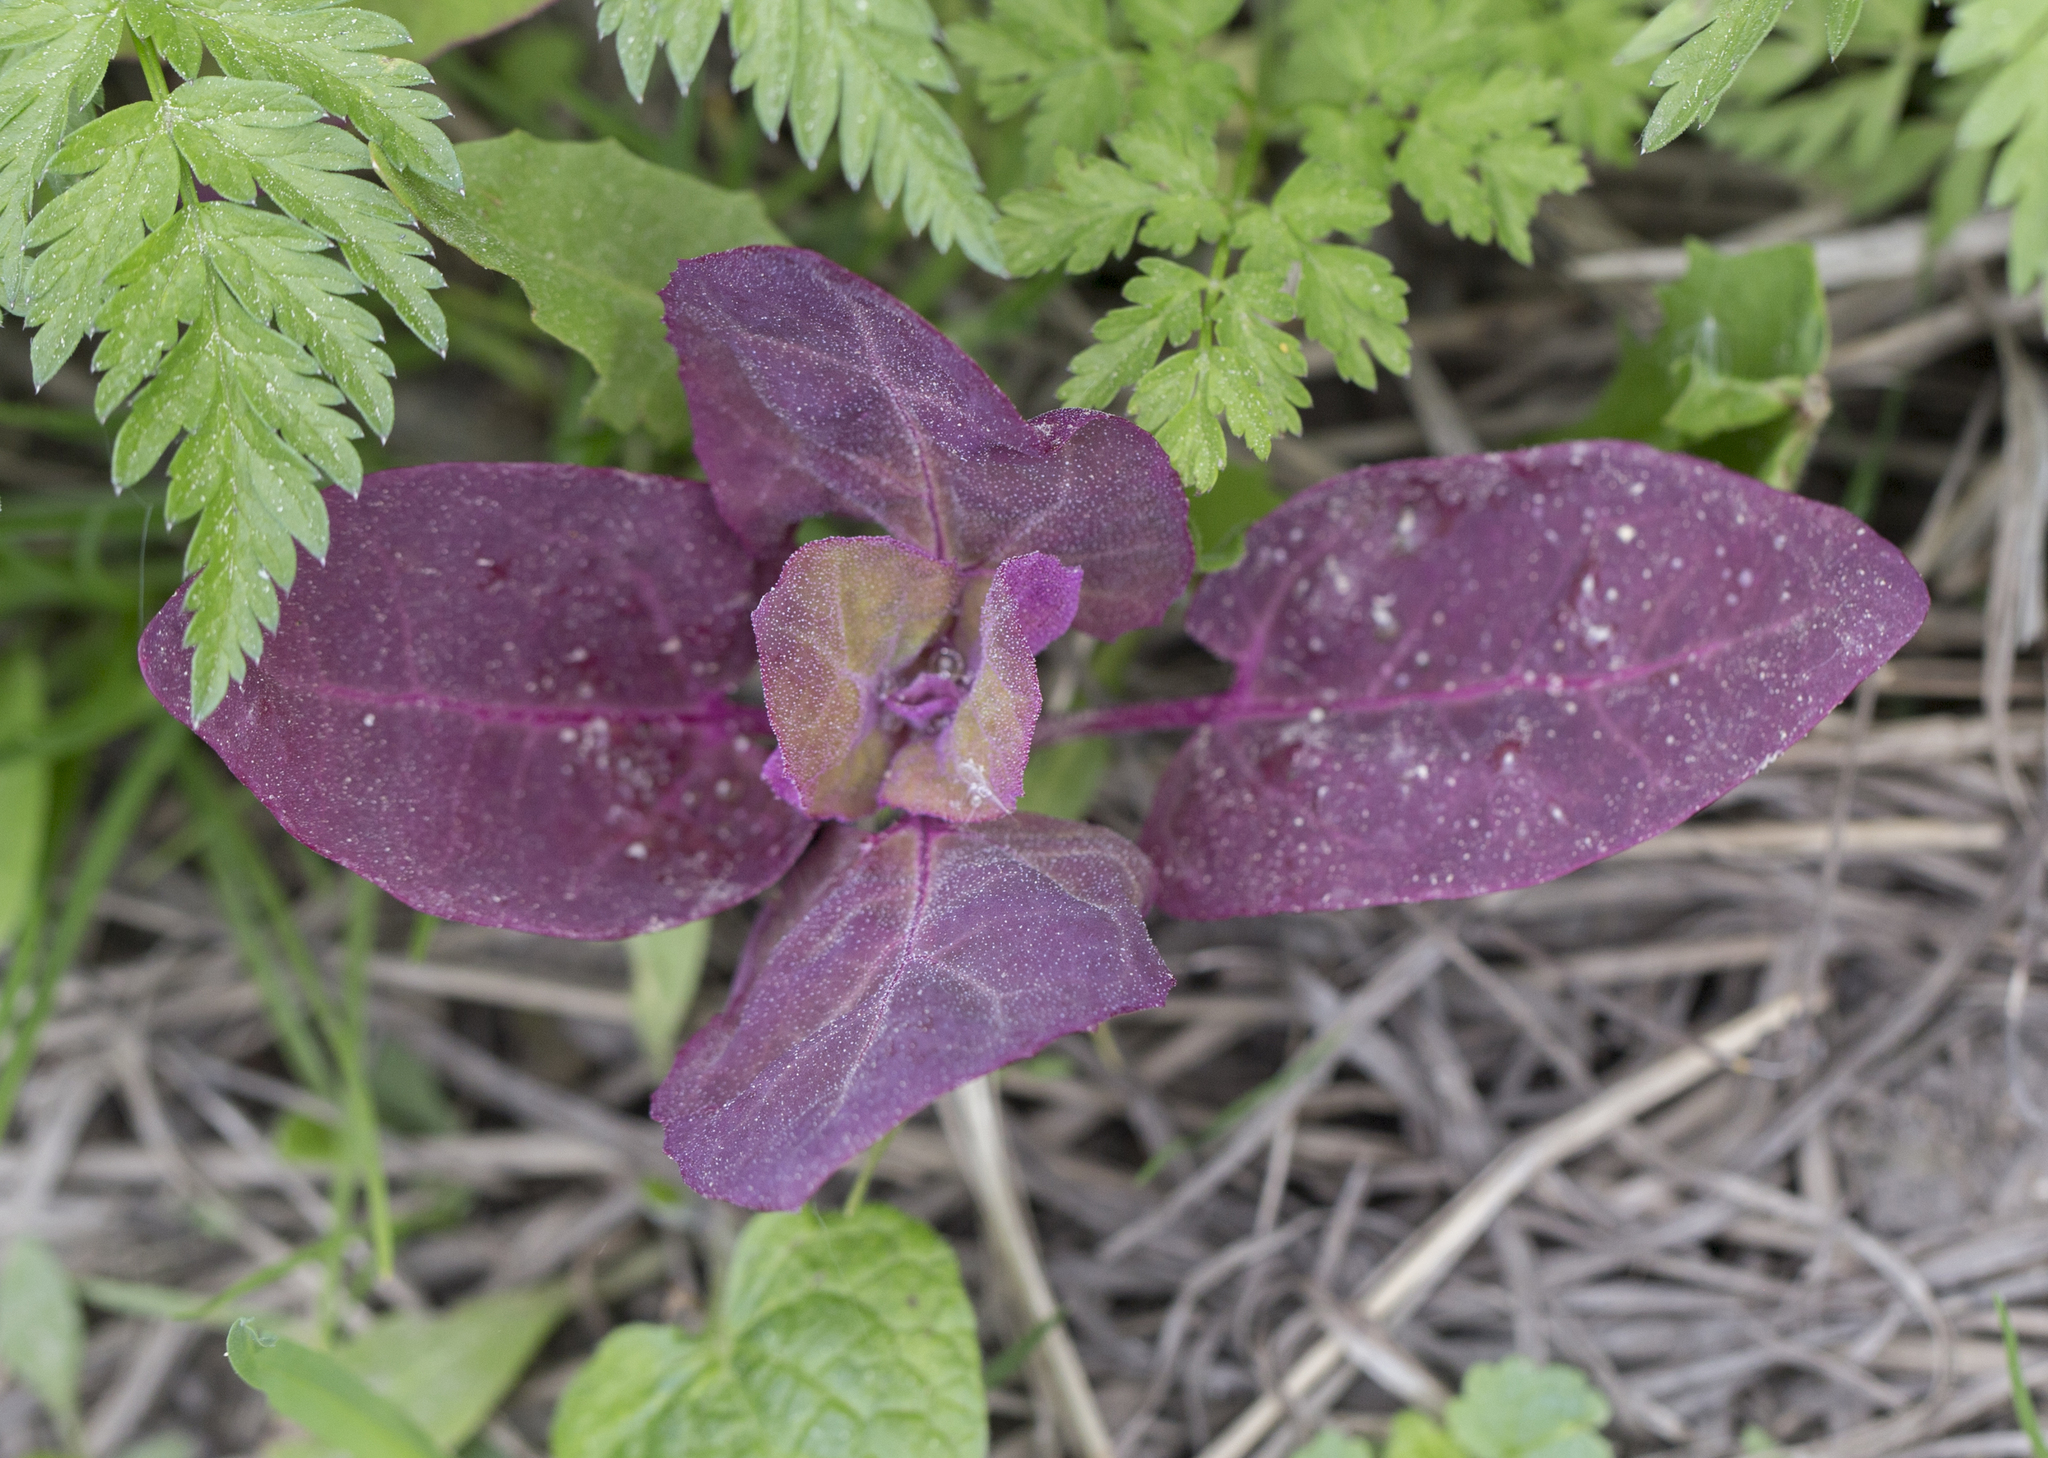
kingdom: Plantae
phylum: Tracheophyta
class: Magnoliopsida
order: Caryophyllales
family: Amaranthaceae
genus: Atriplex
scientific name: Atriplex hortensis
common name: Garden orache
